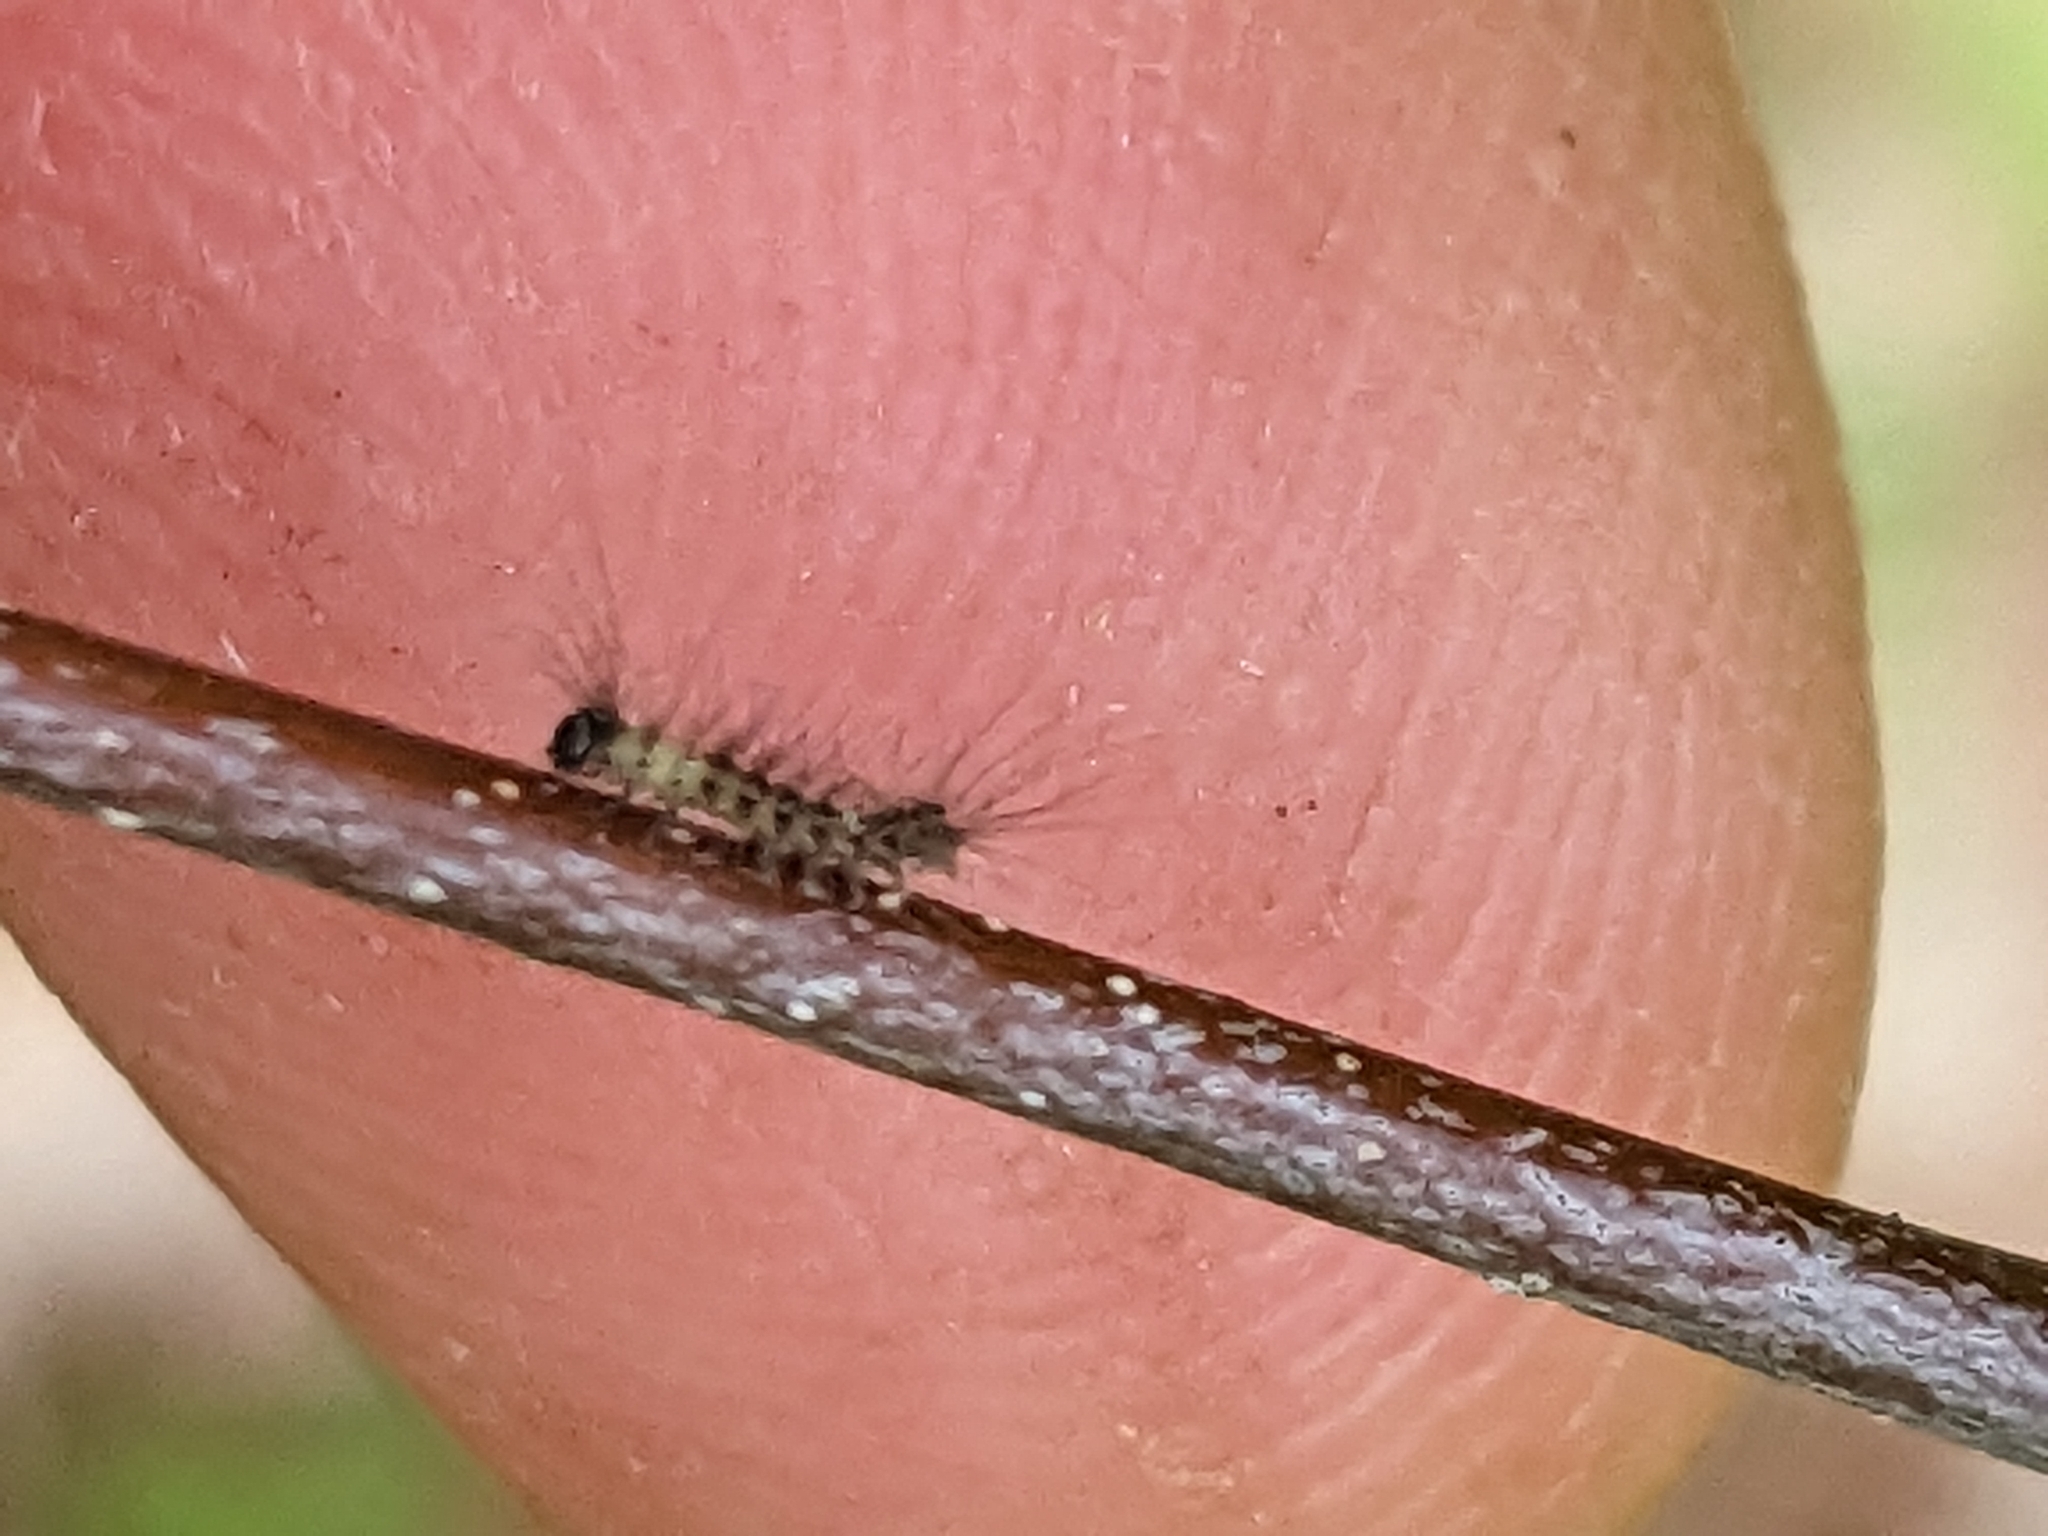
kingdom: Animalia
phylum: Arthropoda
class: Insecta
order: Lepidoptera
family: Erebidae
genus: Lymantria
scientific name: Lymantria dispar
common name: Gypsy moth
